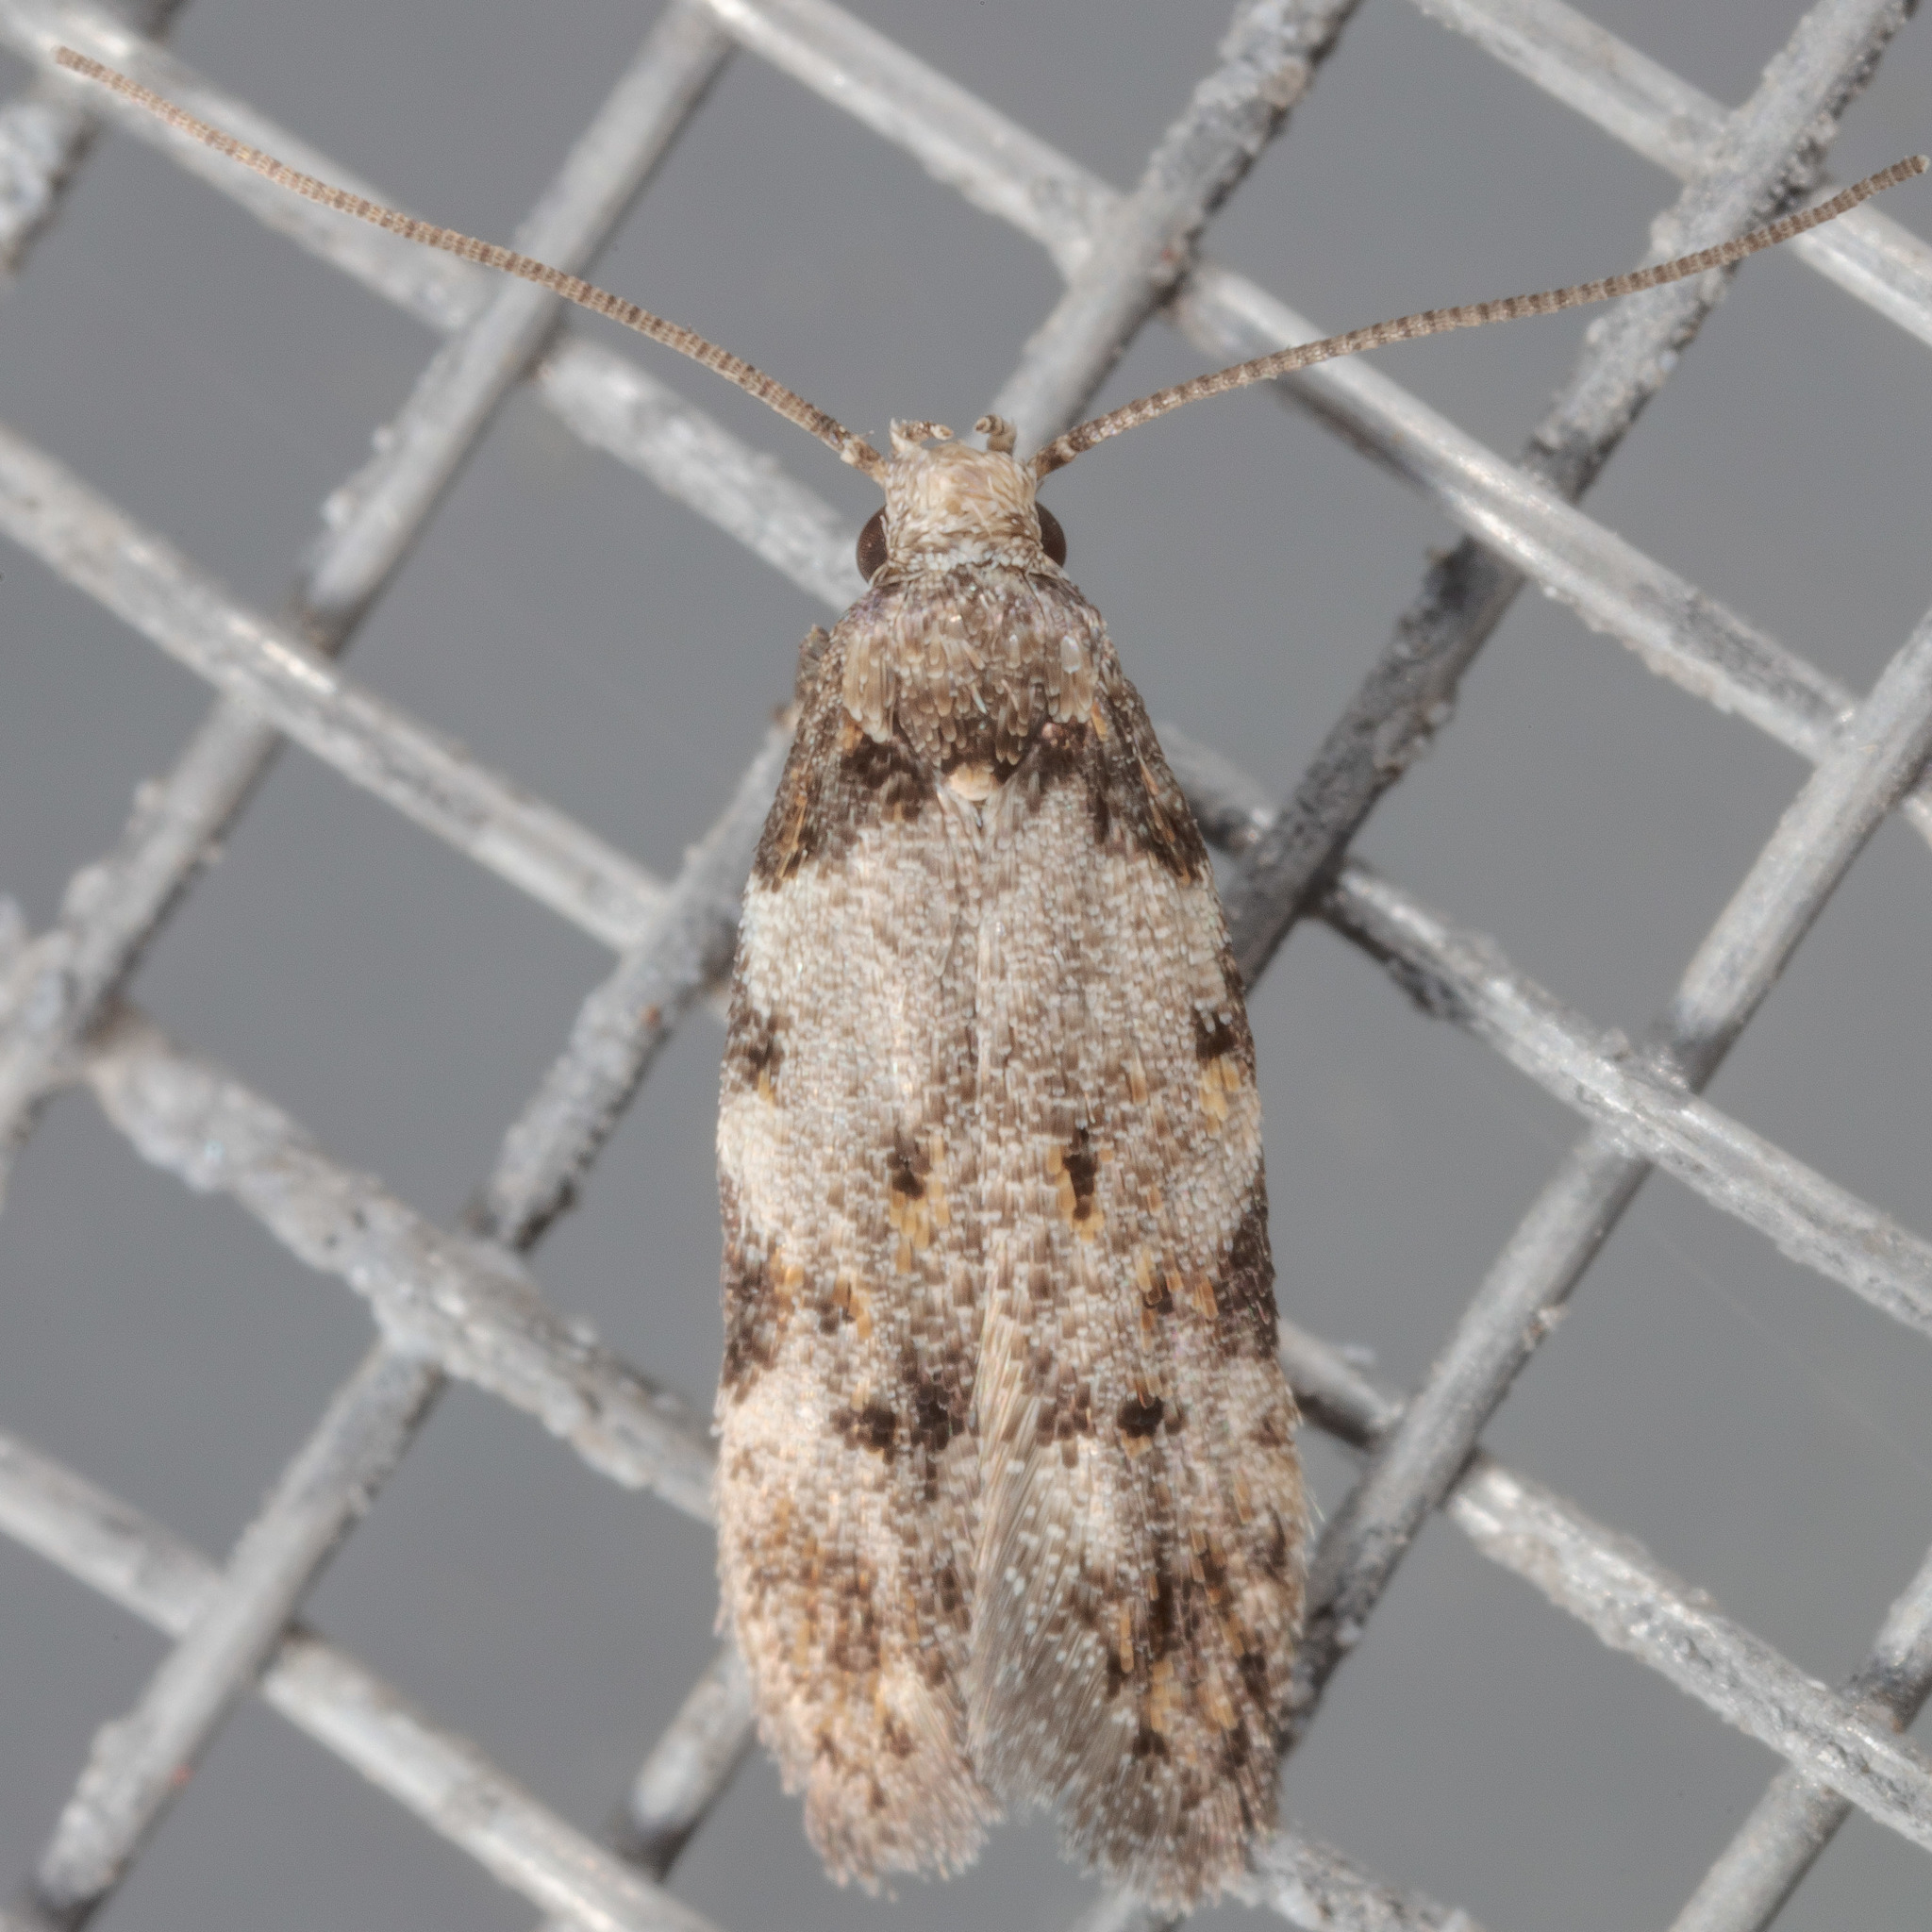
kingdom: Animalia
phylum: Arthropoda
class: Insecta
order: Lepidoptera
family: Autostichidae
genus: Taygete
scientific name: Taygete attributella
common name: Triangle-marked twirler moth
